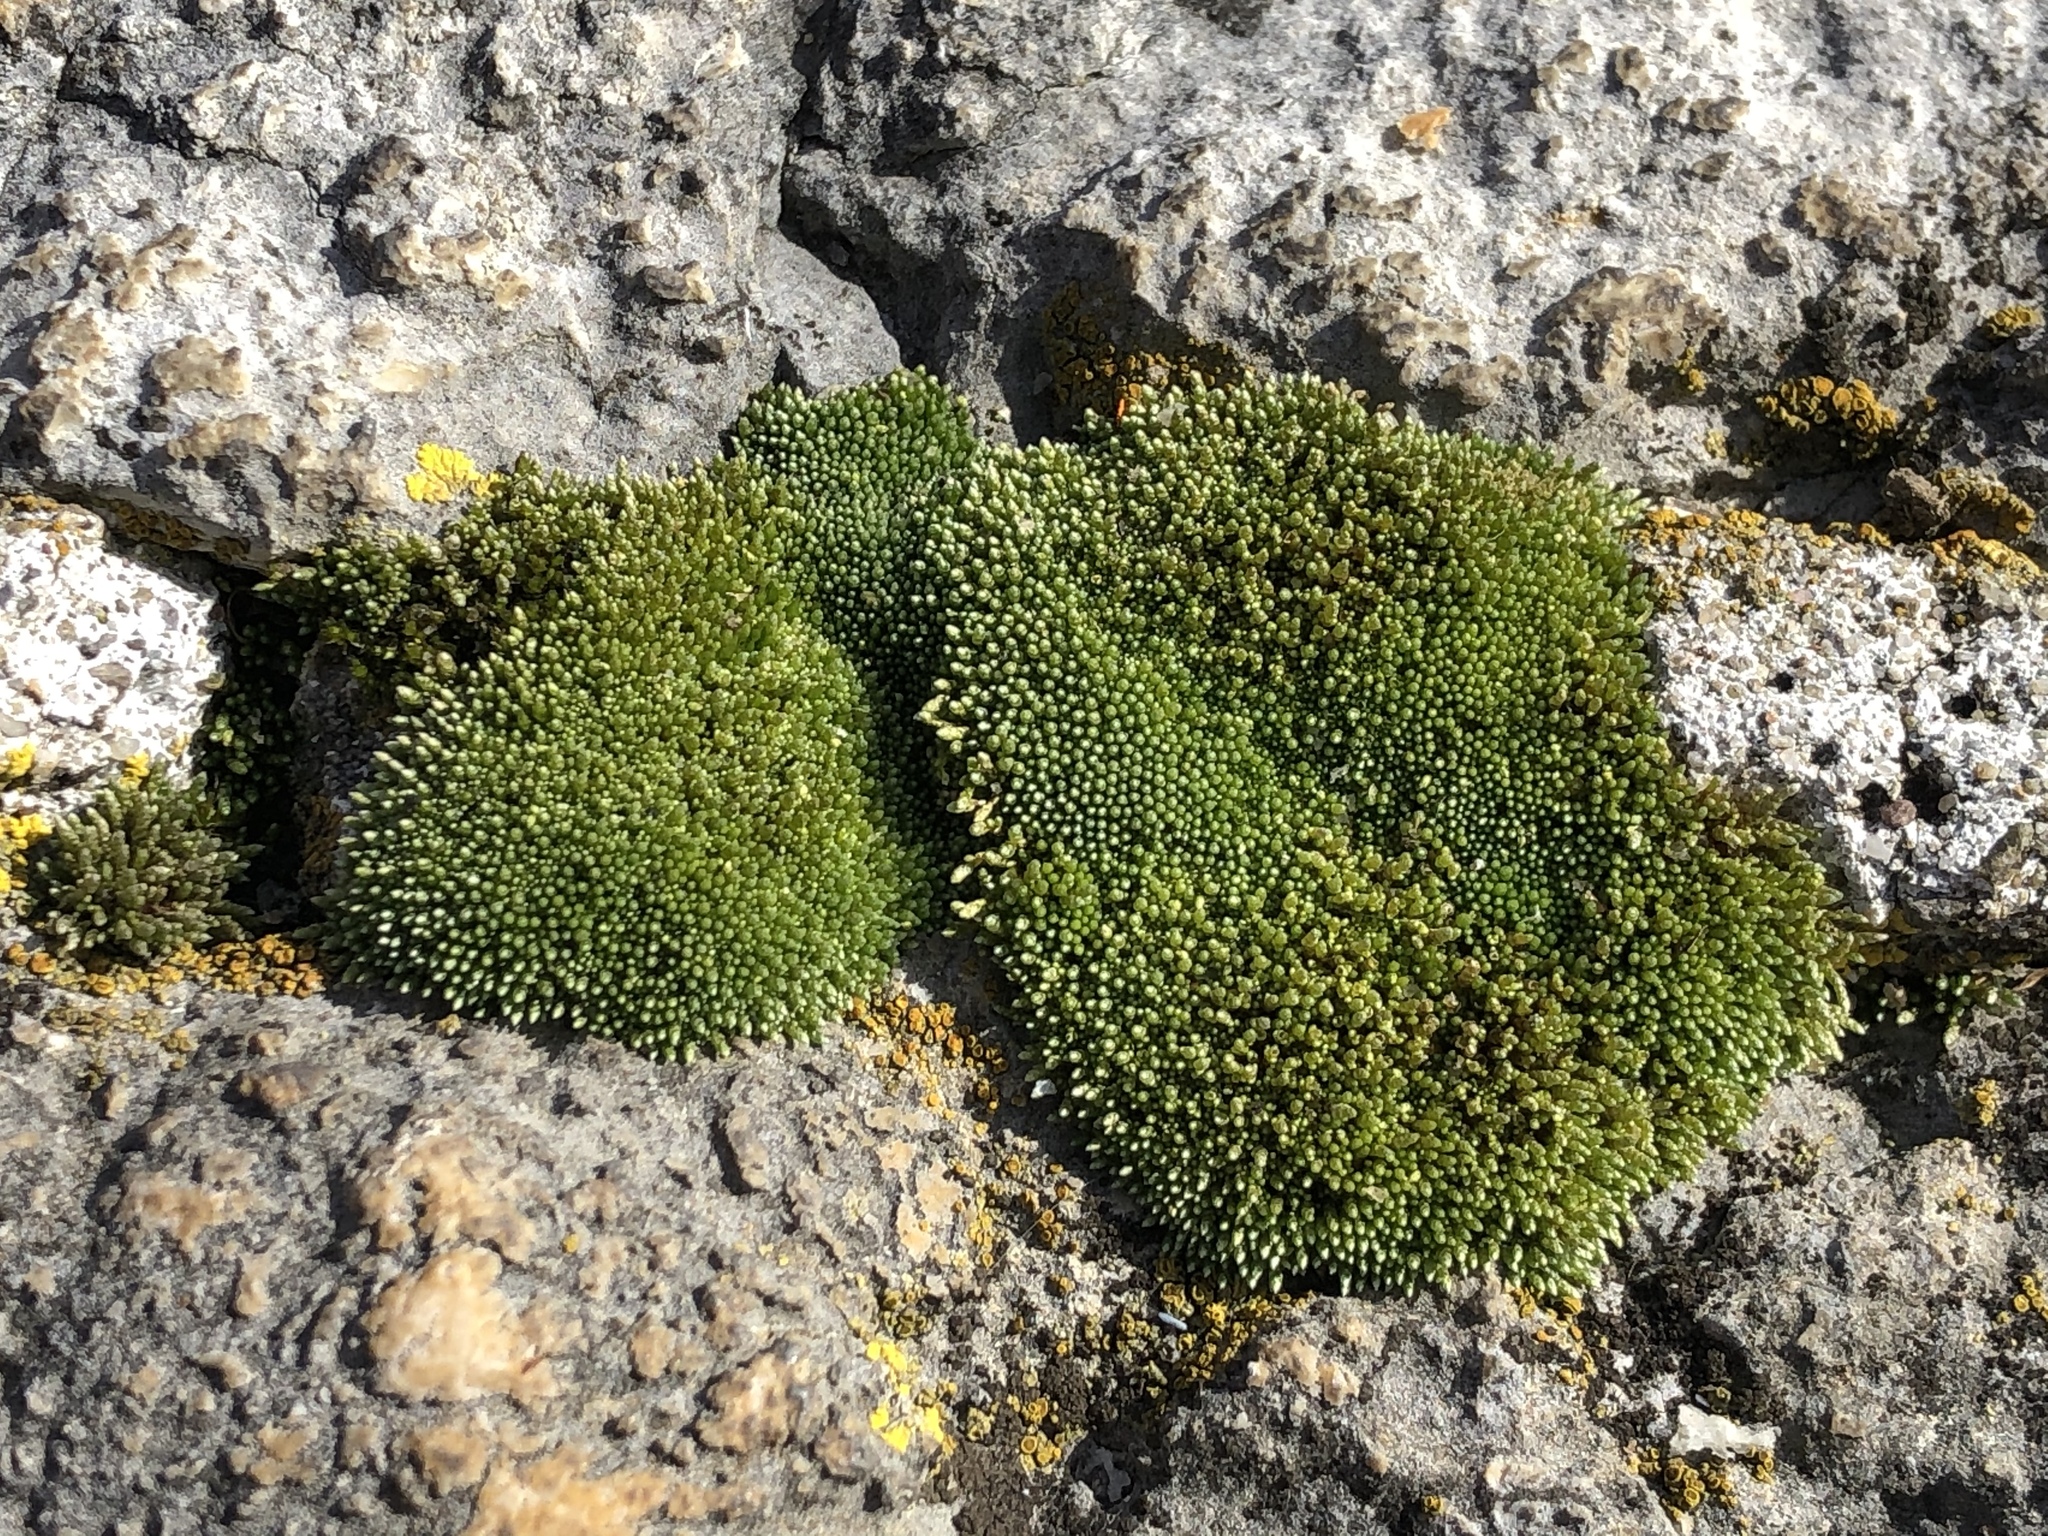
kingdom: Plantae
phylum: Bryophyta
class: Bryopsida
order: Bryales
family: Bryaceae
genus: Bryum
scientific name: Bryum argenteum
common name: Silver-moss
